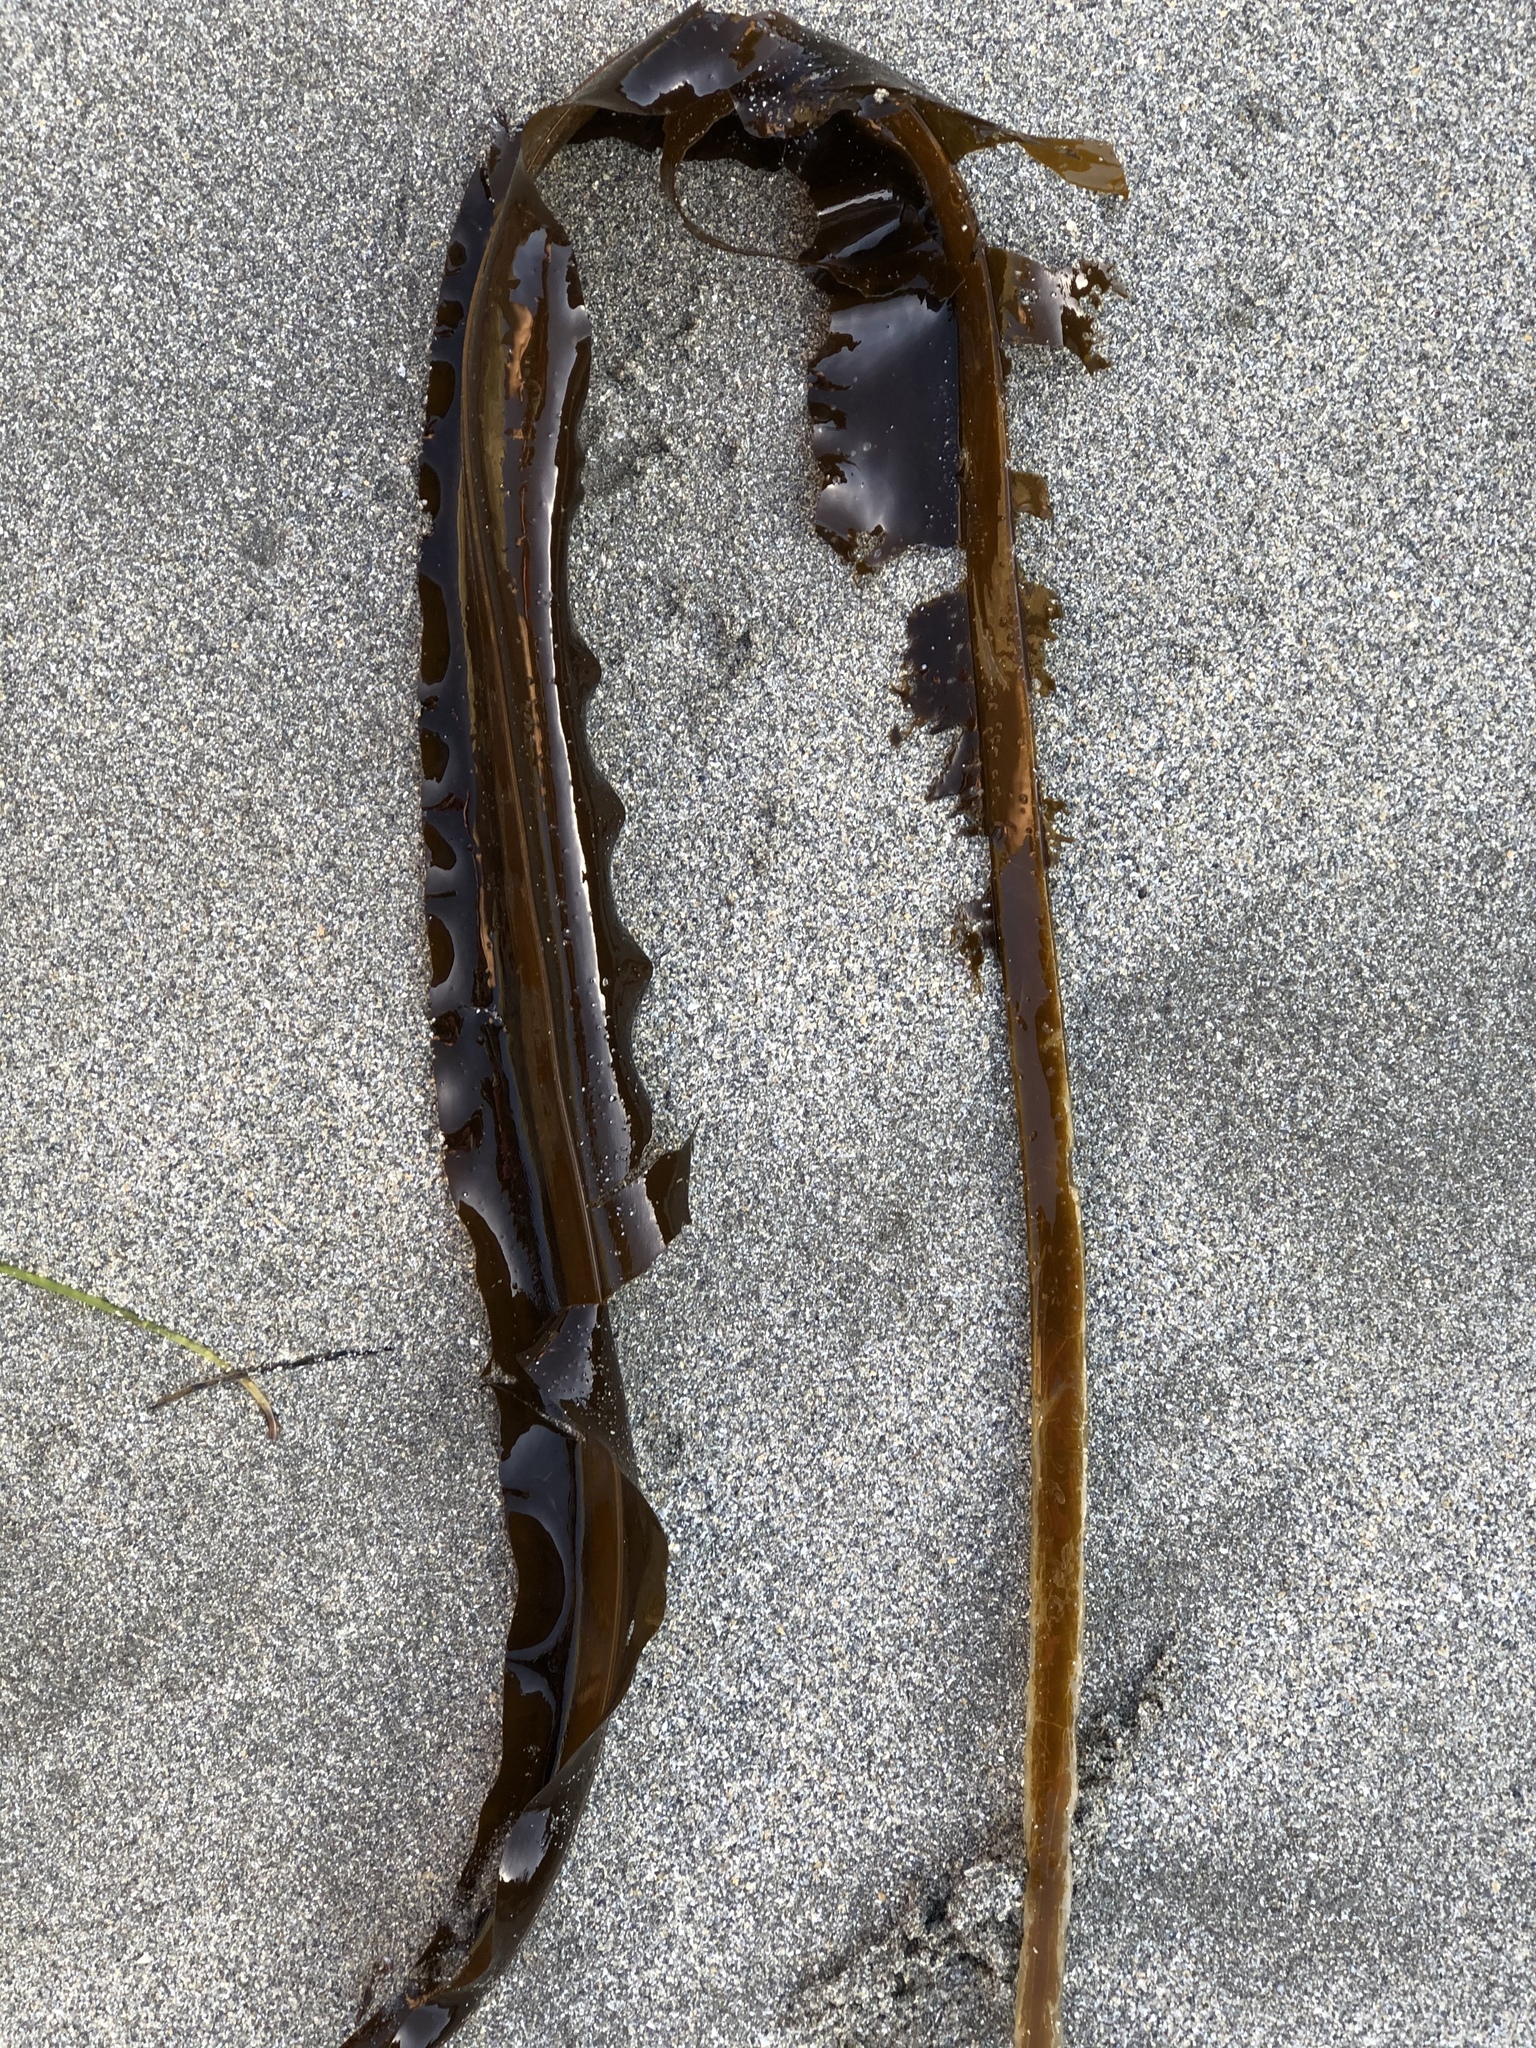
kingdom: Chromista
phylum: Ochrophyta
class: Phaeophyceae
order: Laminariales
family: Alariaceae
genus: Alaria
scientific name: Alaria marginata
